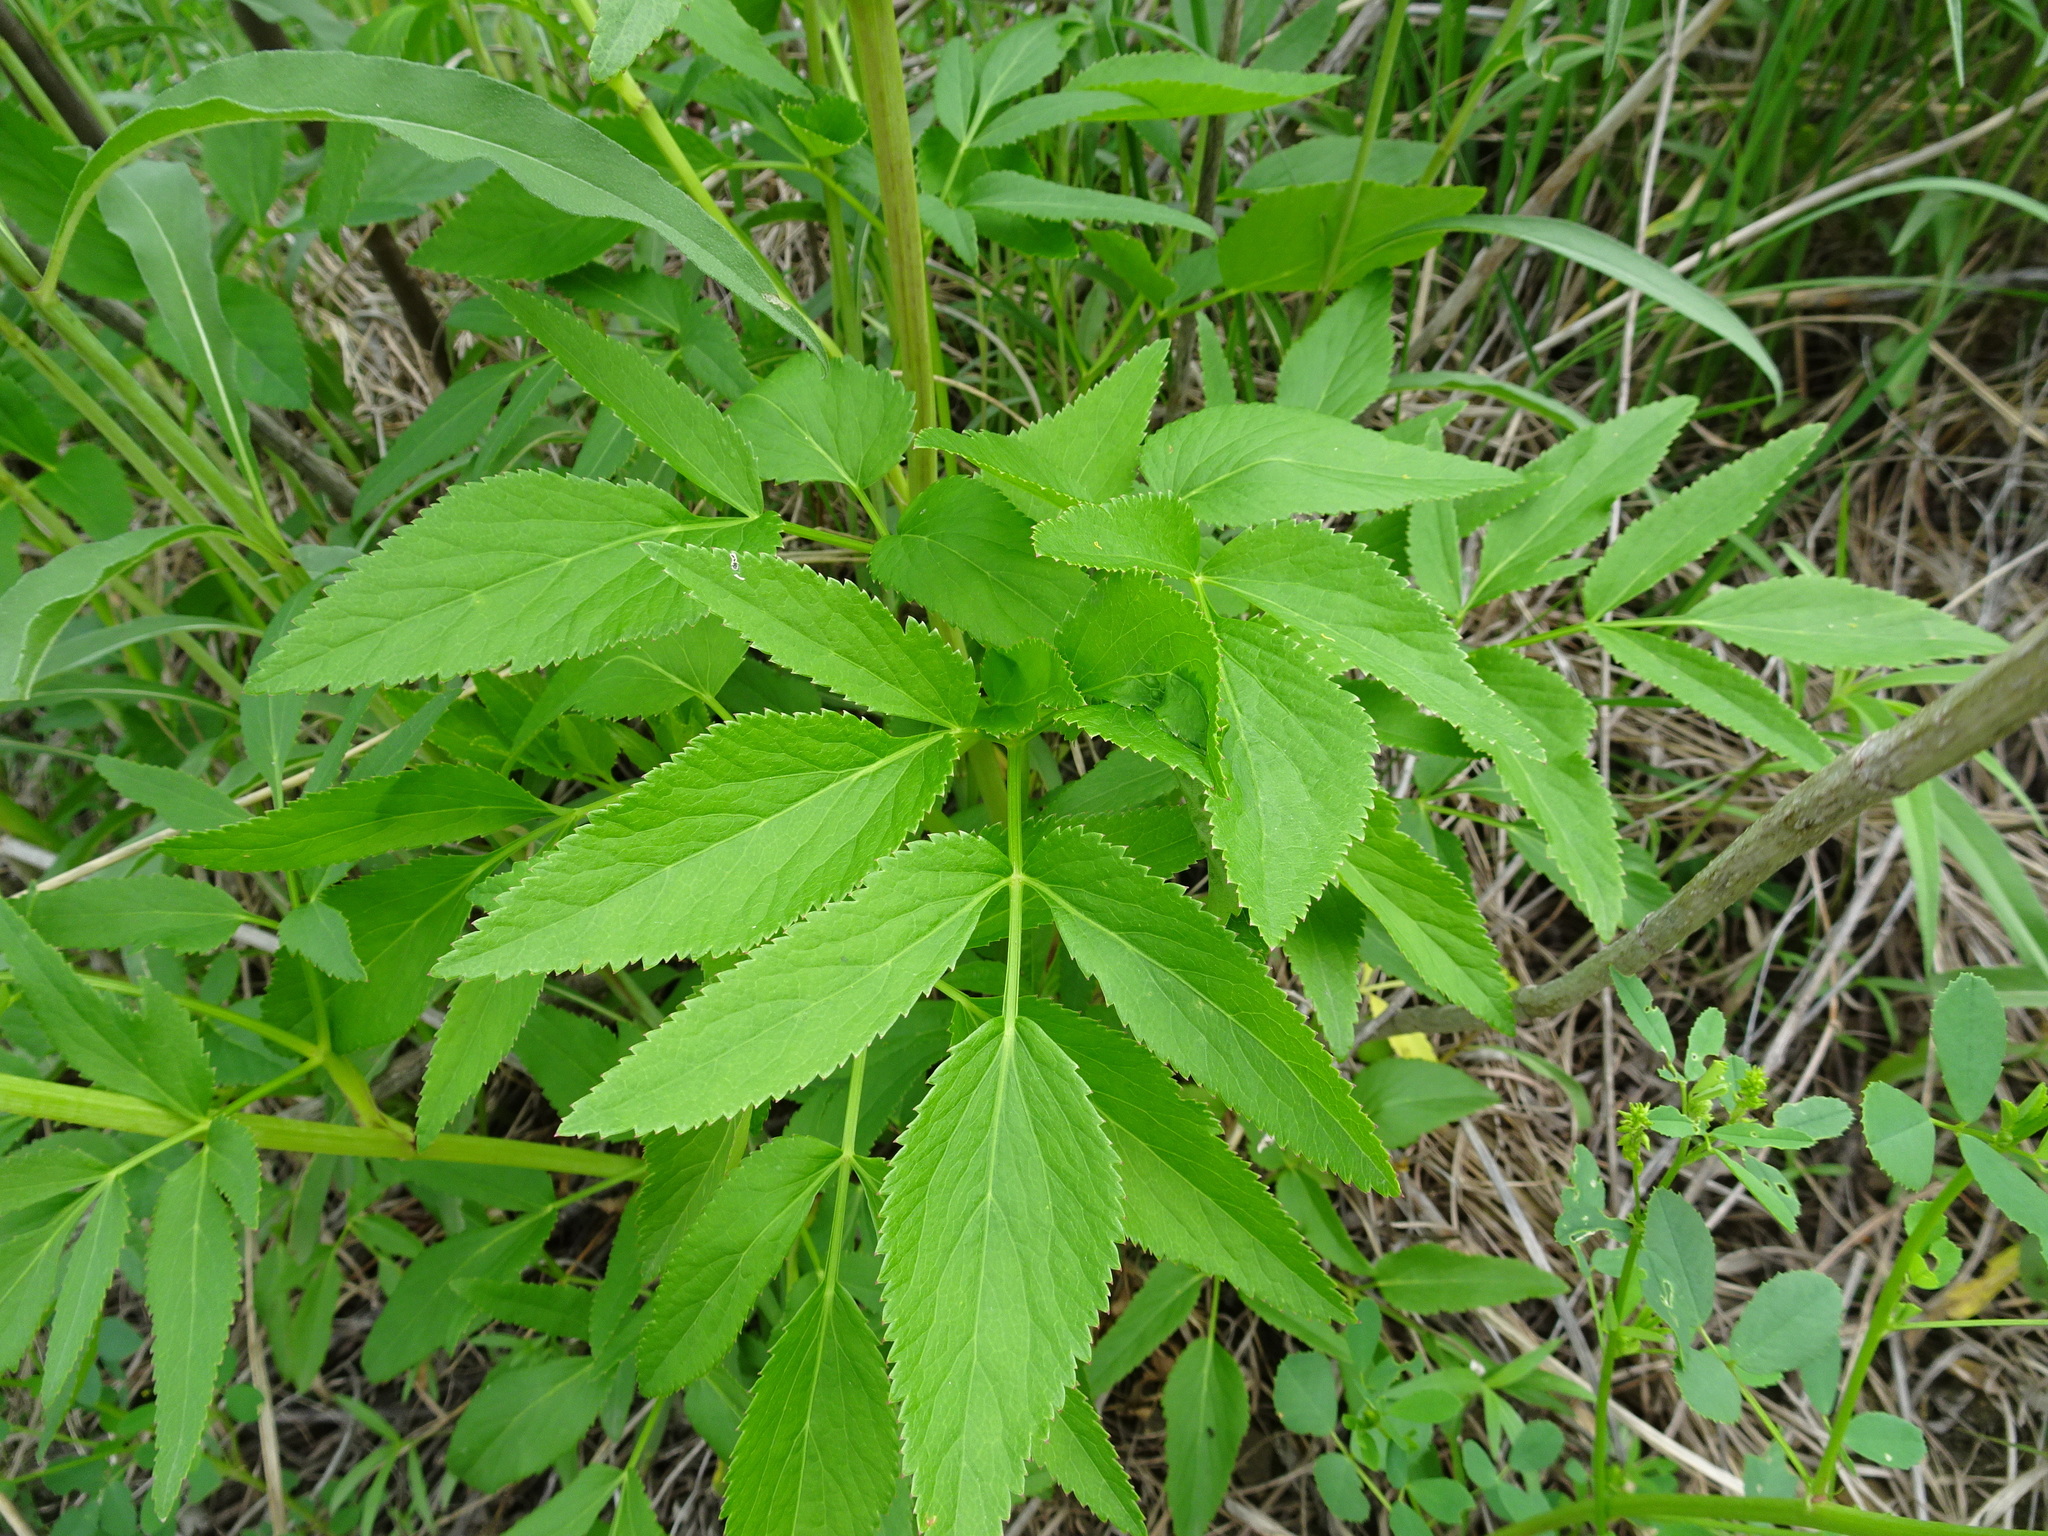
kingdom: Plantae
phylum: Tracheophyta
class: Magnoliopsida
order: Apiales
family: Apiaceae
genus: Zizia
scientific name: Zizia aurea
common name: Golden alexanders
